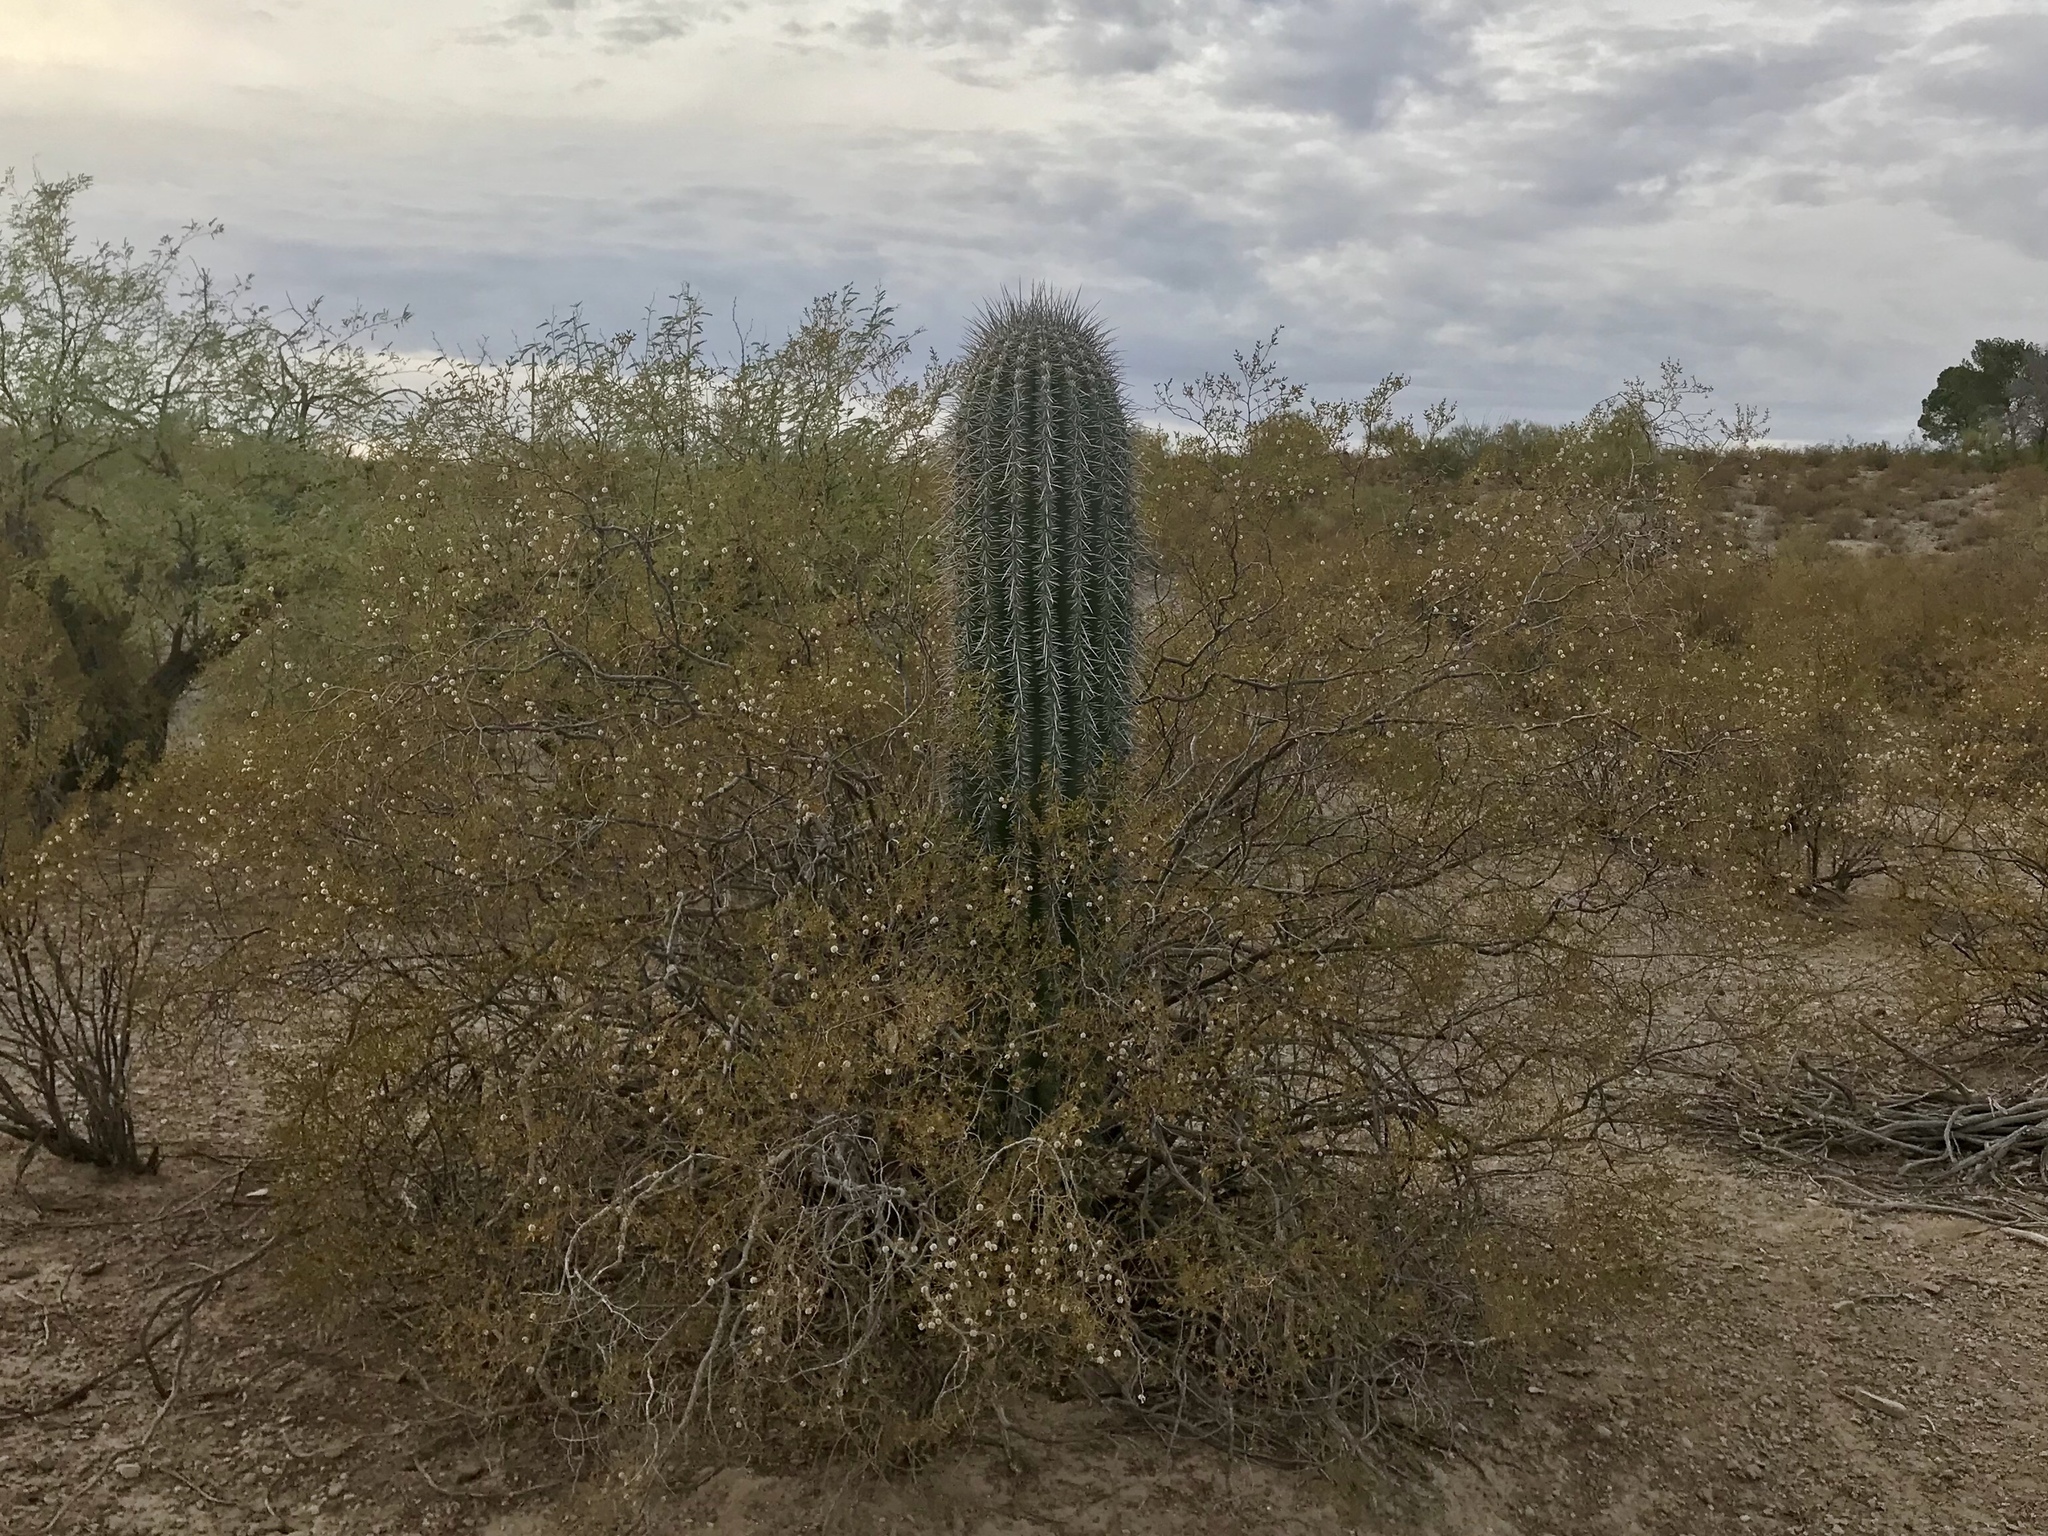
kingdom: Plantae
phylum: Tracheophyta
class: Magnoliopsida
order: Zygophyllales
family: Zygophyllaceae
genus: Larrea
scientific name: Larrea tridentata
